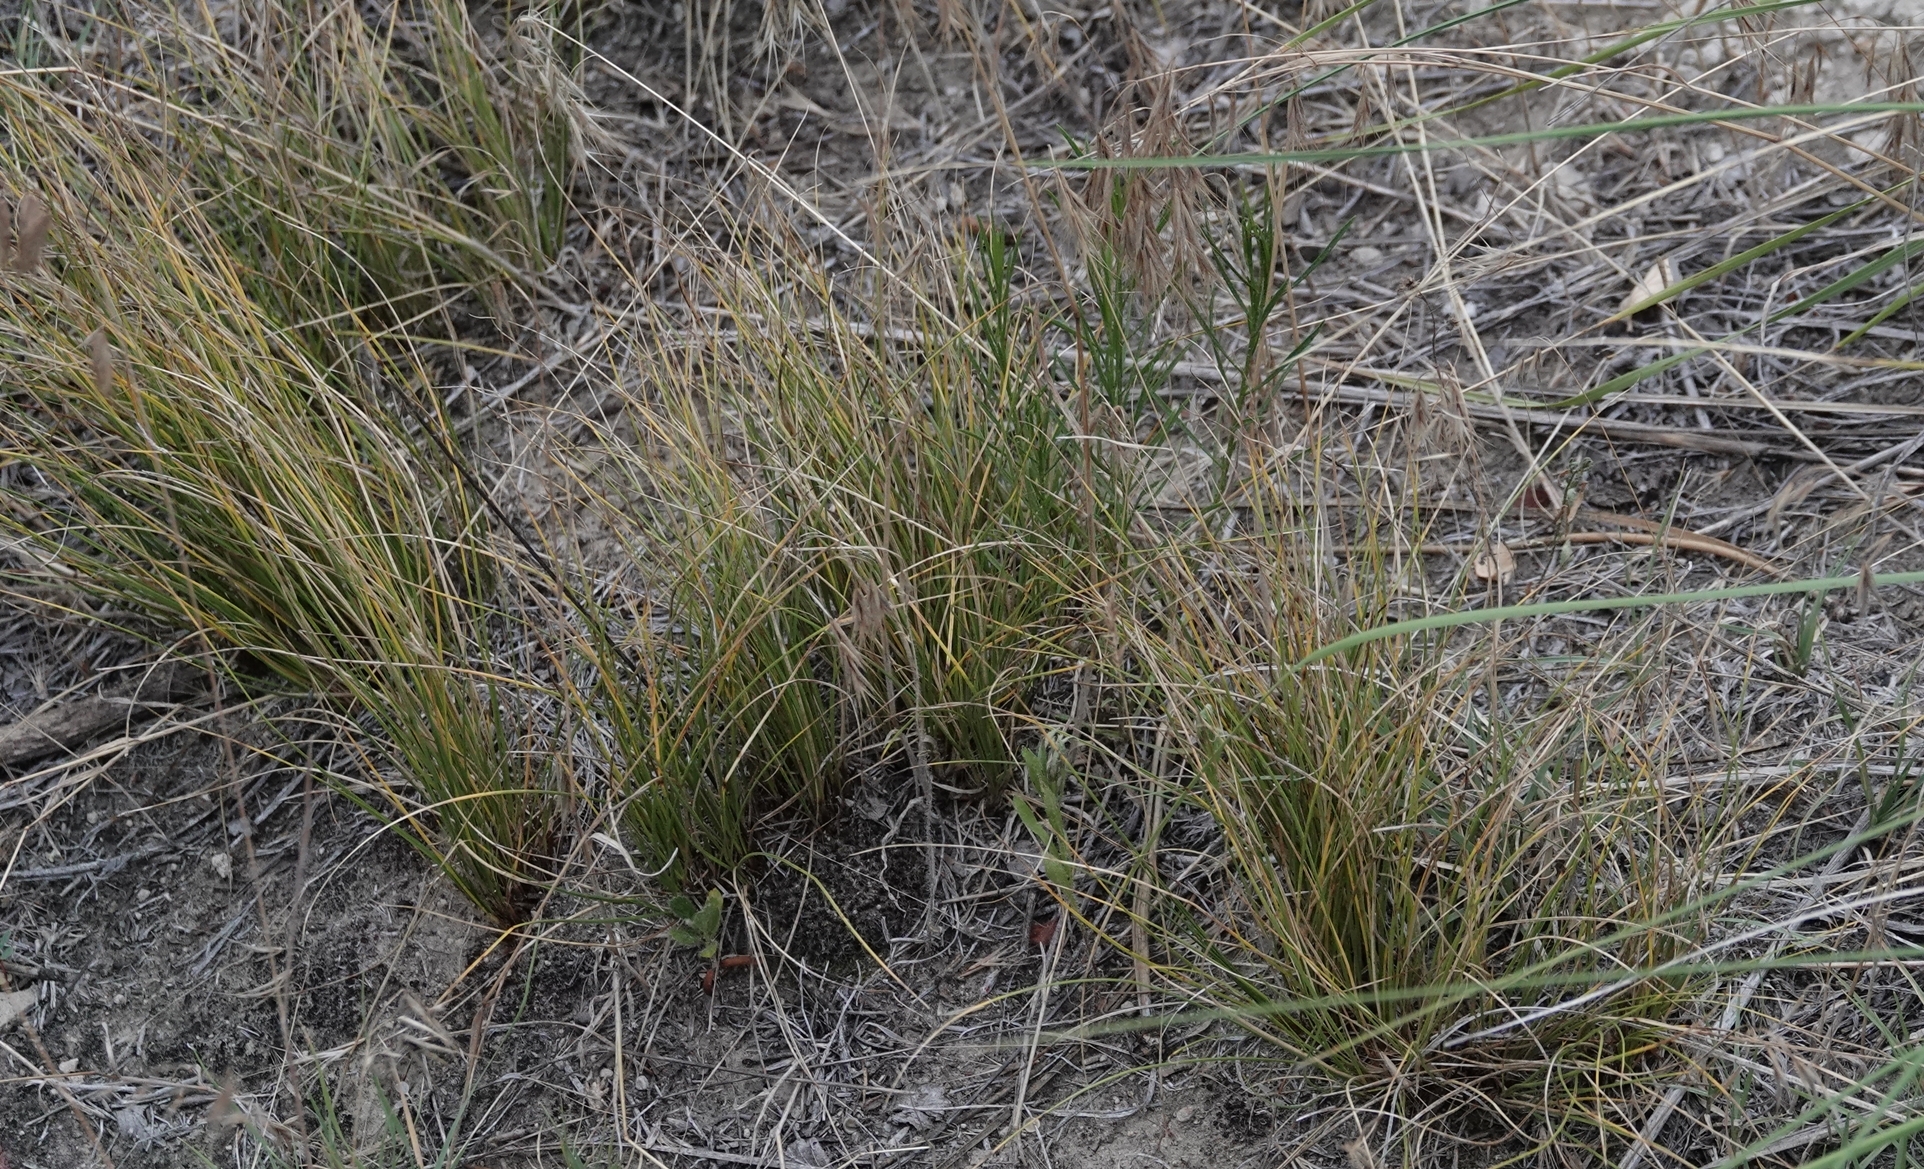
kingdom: Plantae
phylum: Tracheophyta
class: Liliopsida
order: Poales
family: Cyperaceae
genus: Carex
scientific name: Carex filifolia
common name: Threadleaf sedge
